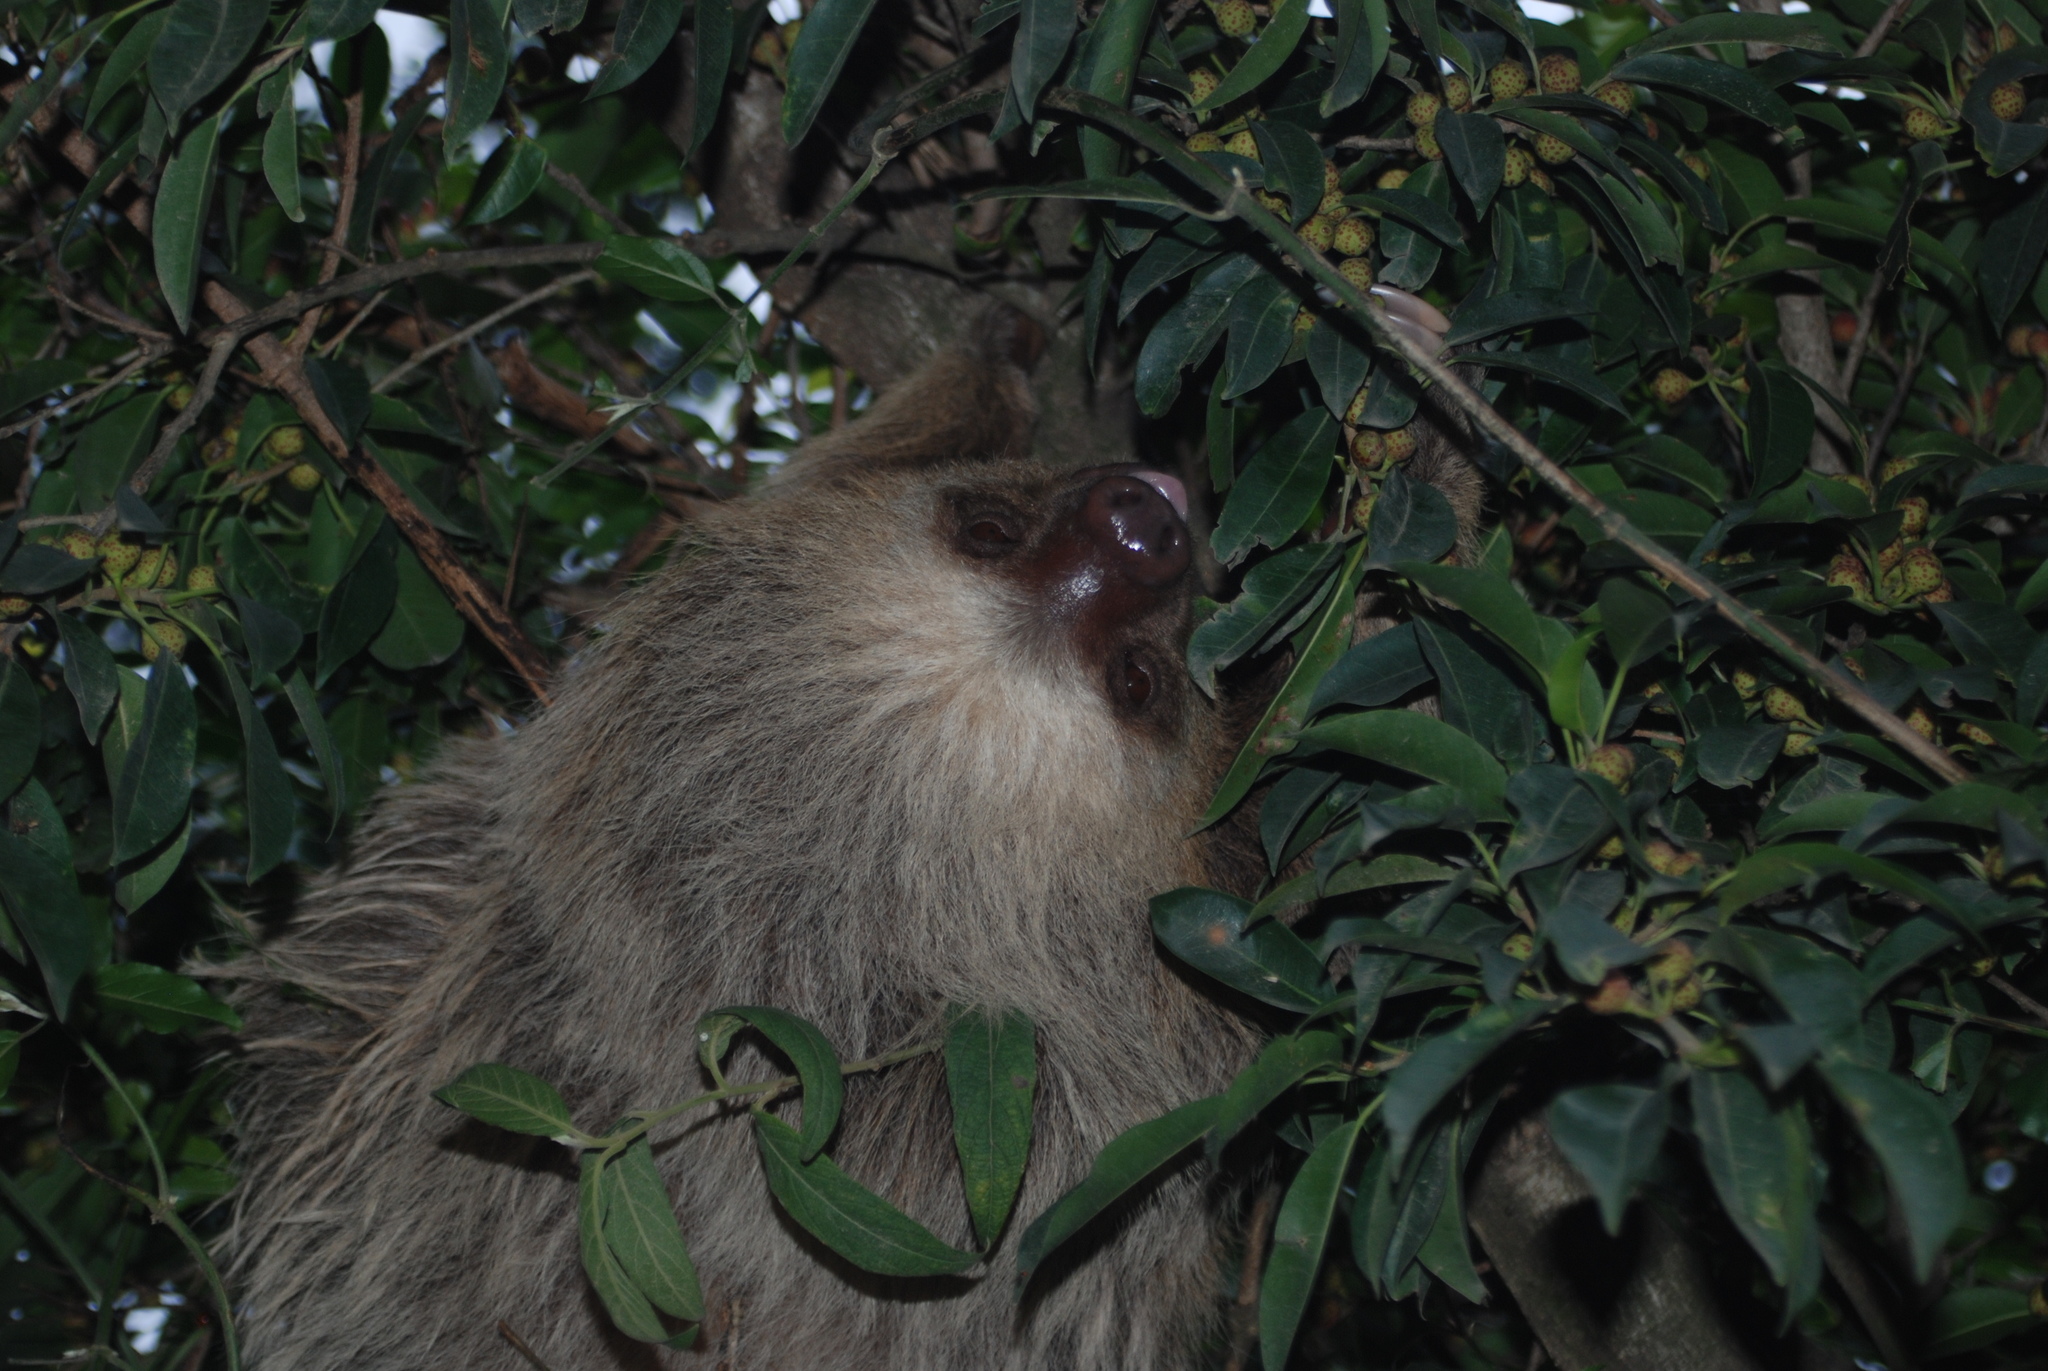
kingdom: Animalia
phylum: Chordata
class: Mammalia
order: Pilosa
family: Megalonychidae
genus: Choloepus
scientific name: Choloepus hoffmanni
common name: Hoffmann's two-toed sloth
